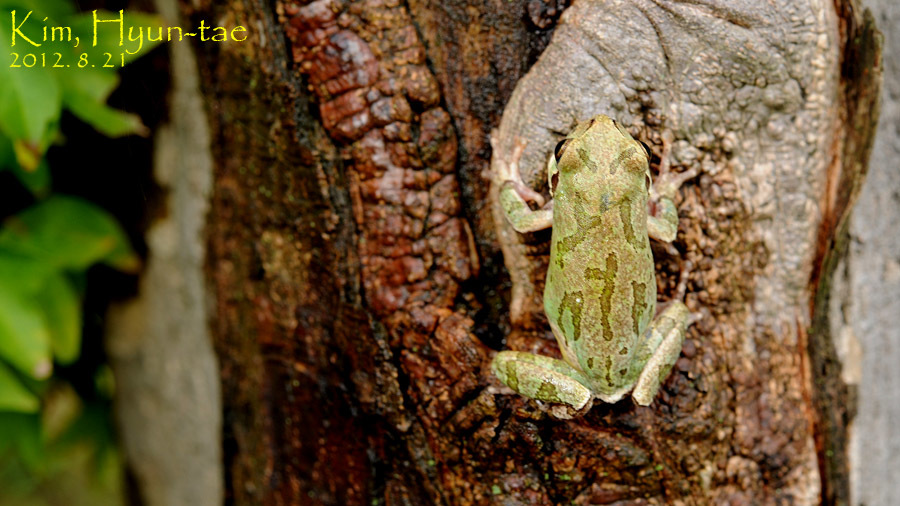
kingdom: Animalia
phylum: Chordata
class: Amphibia
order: Anura
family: Hylidae
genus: Dryophytes
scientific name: Dryophytes japonicus
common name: Japanese treefrog
